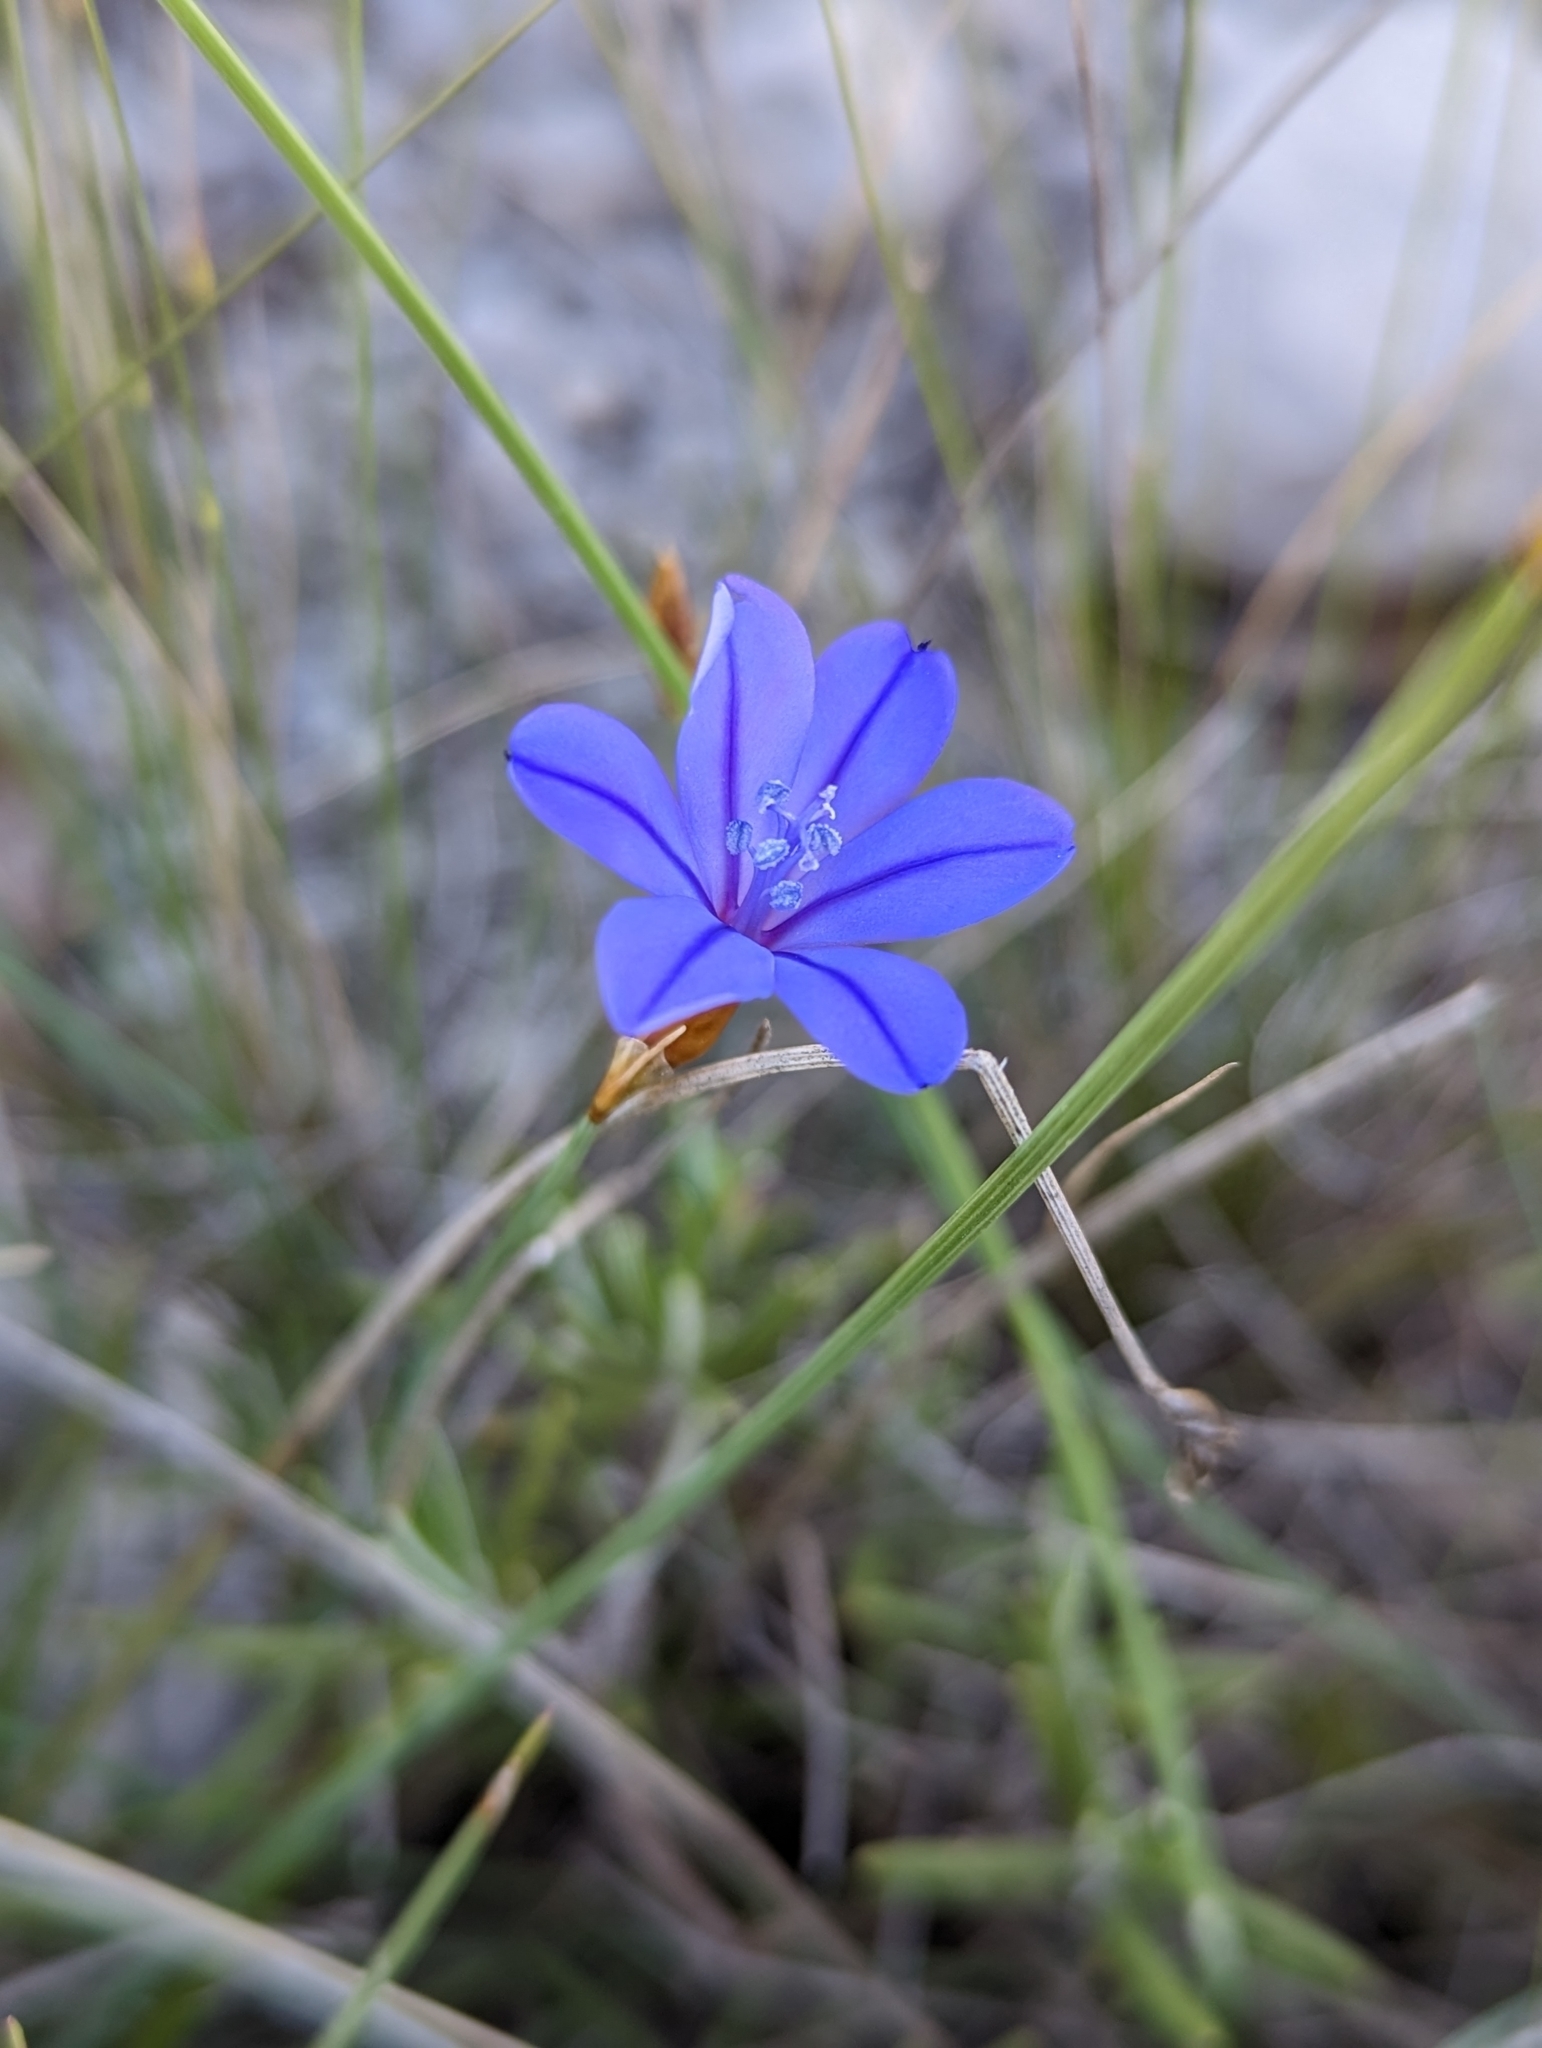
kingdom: Plantae
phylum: Tracheophyta
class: Liliopsida
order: Asparagales
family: Asparagaceae
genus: Aphyllanthes
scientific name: Aphyllanthes monspeliensis
